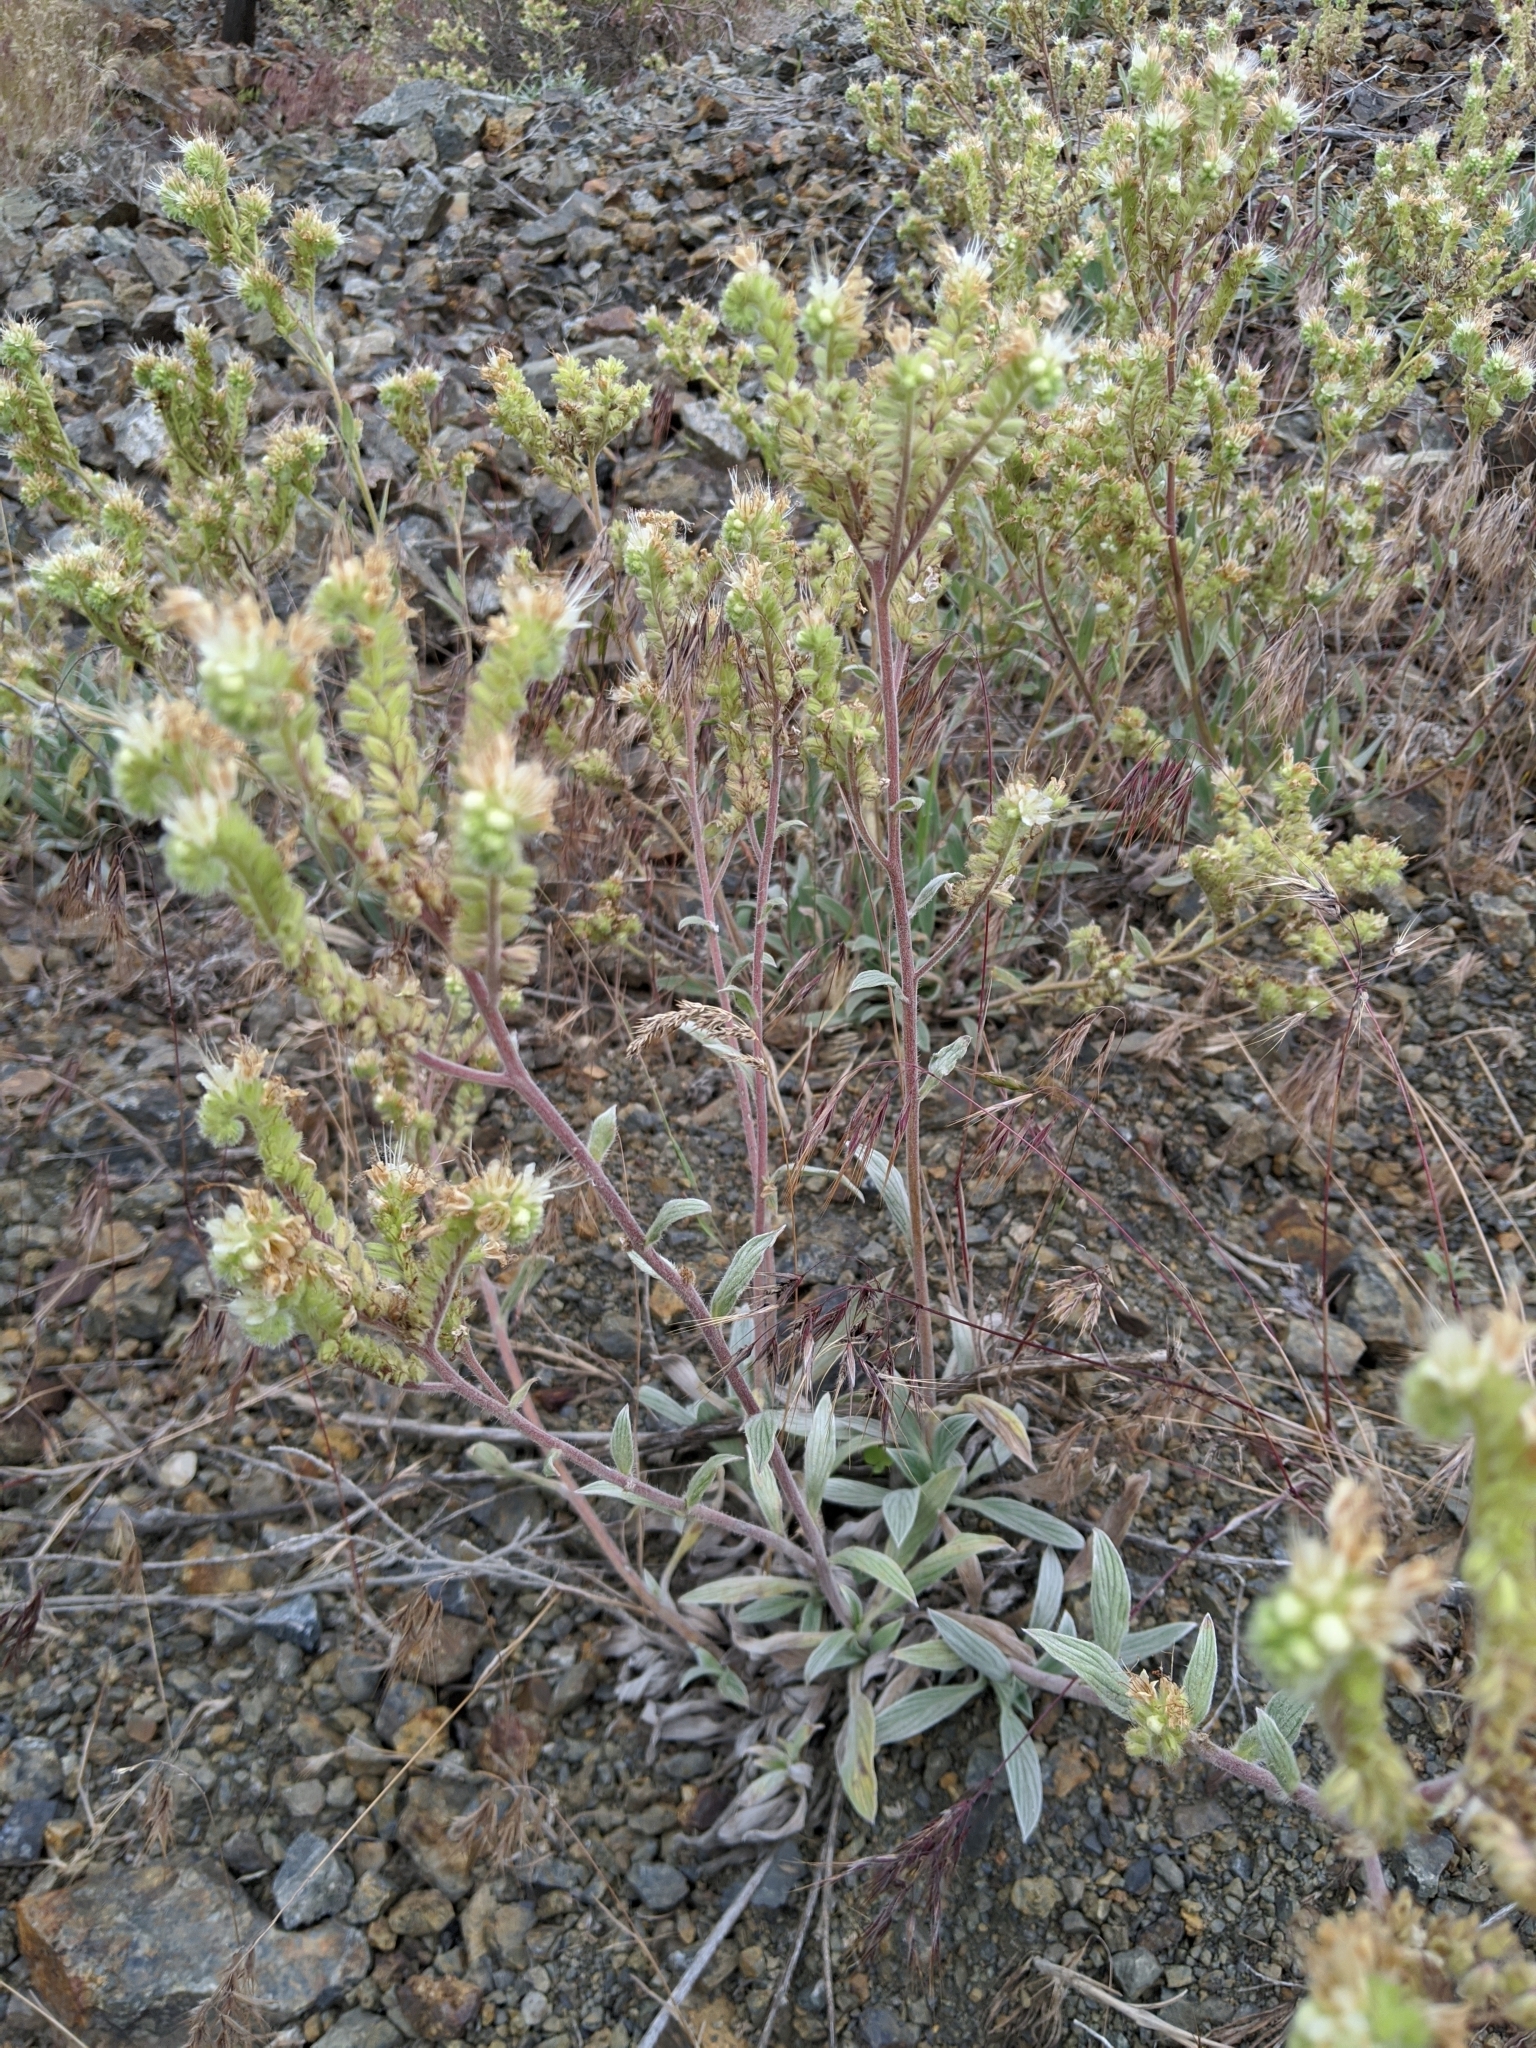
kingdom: Plantae
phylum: Tracheophyta
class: Magnoliopsida
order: Boraginales
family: Hydrophyllaceae
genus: Phacelia
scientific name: Phacelia hastata
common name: Silver-leaved phacelia
